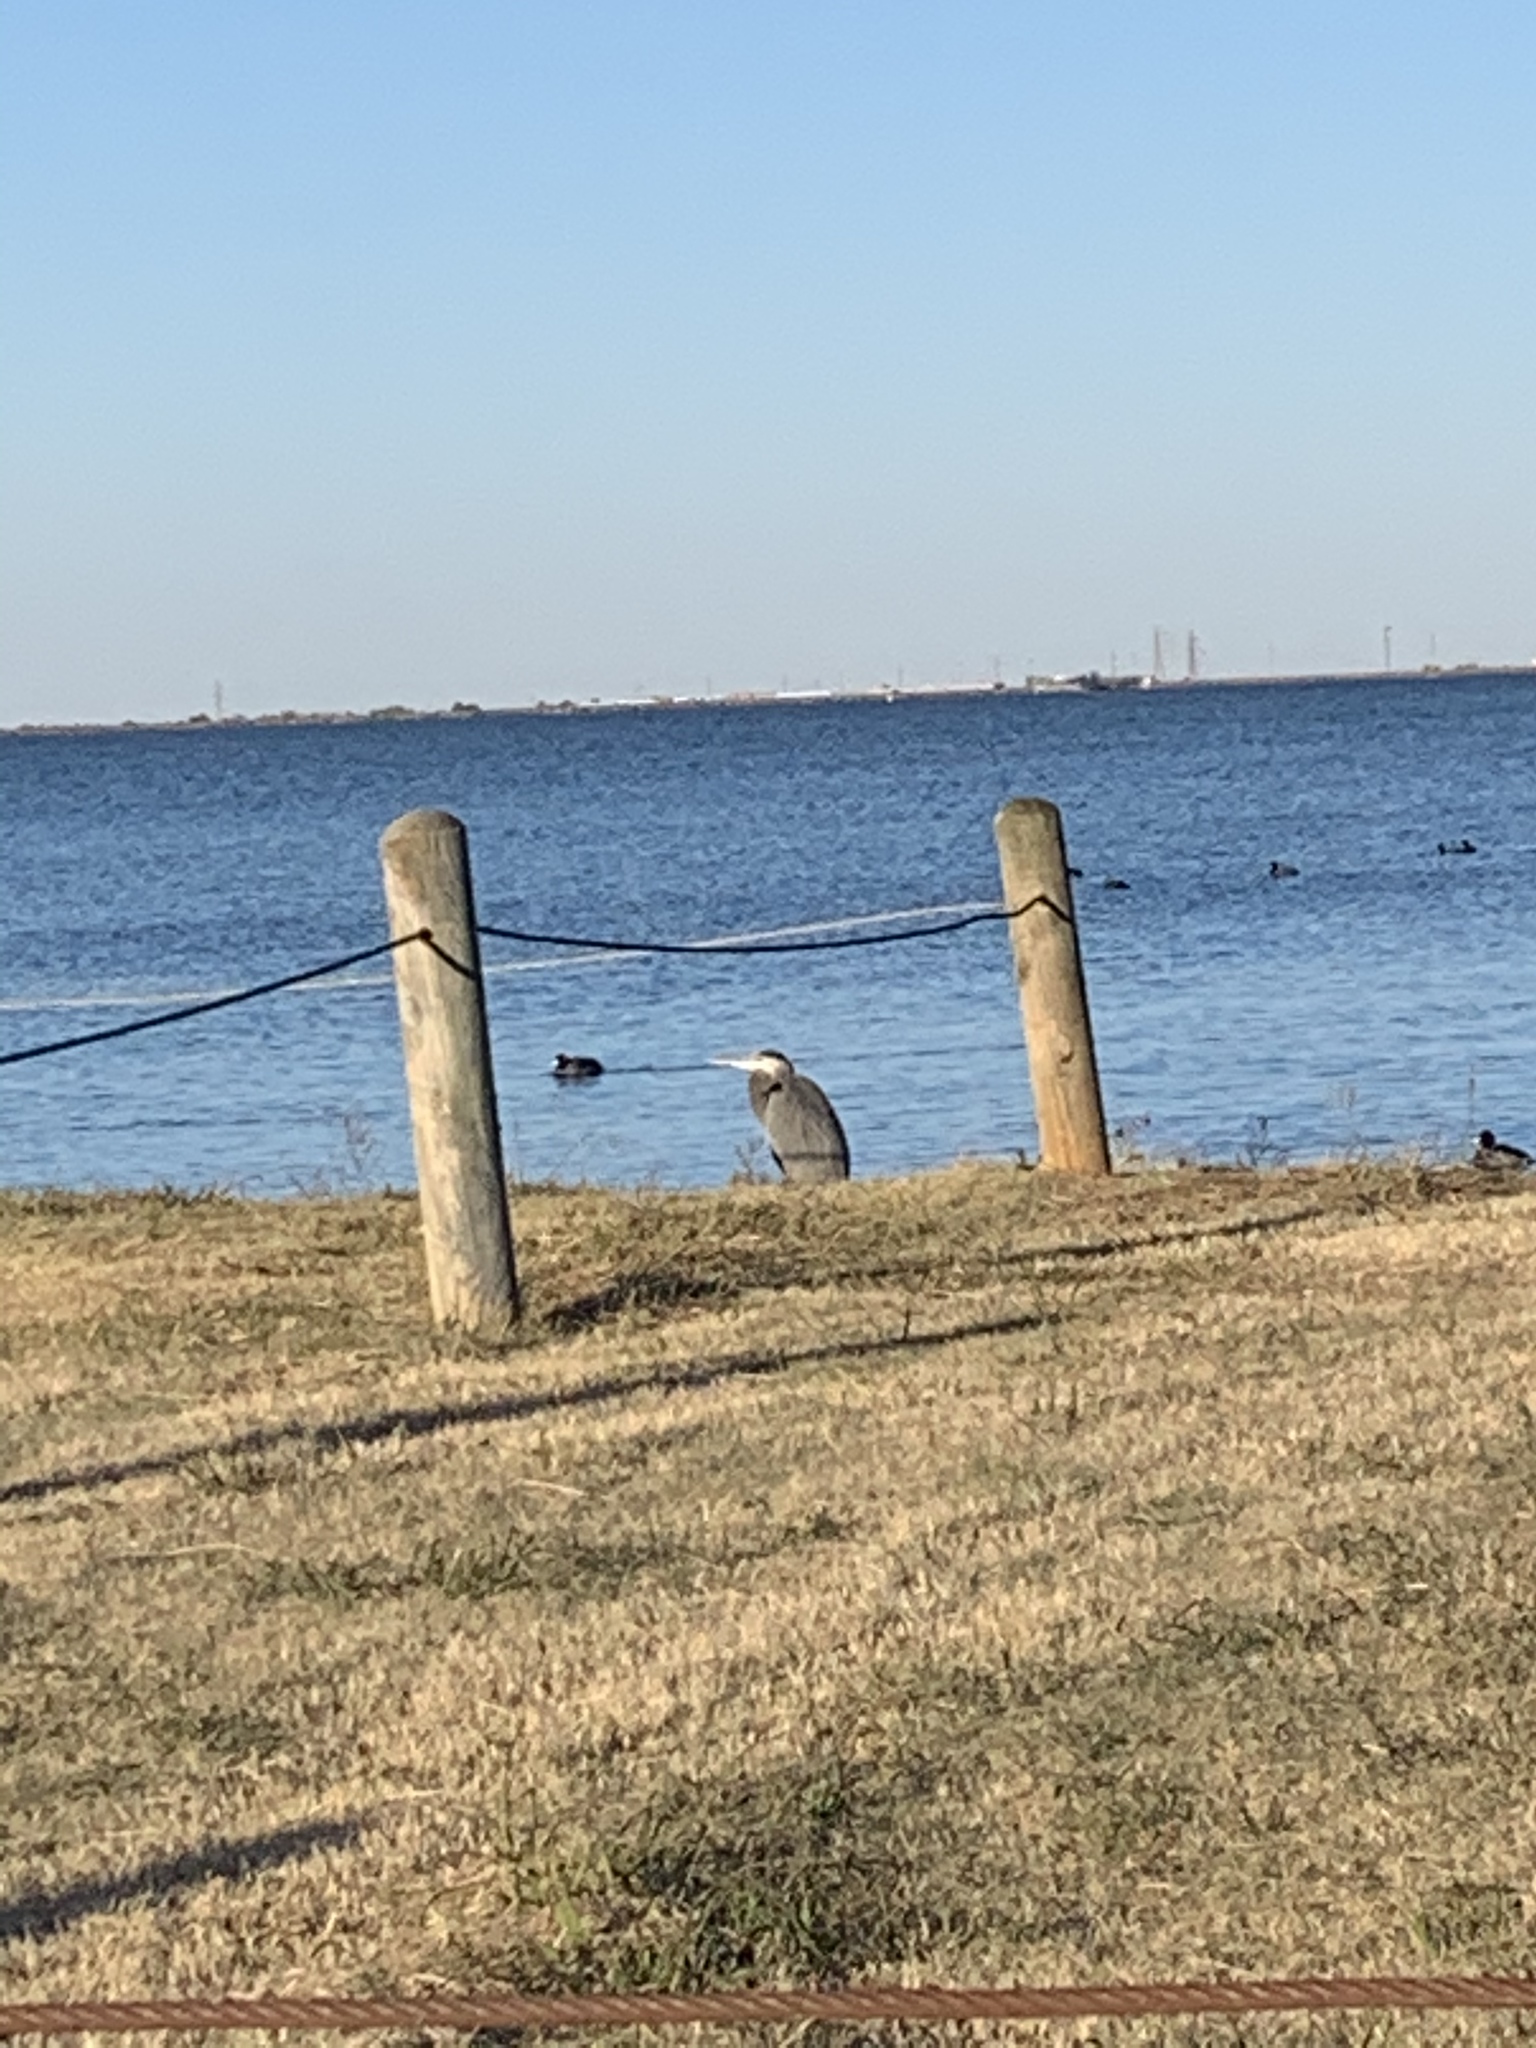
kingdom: Animalia
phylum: Chordata
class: Aves
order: Pelecaniformes
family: Ardeidae
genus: Ardea
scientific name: Ardea herodias
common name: Great blue heron
